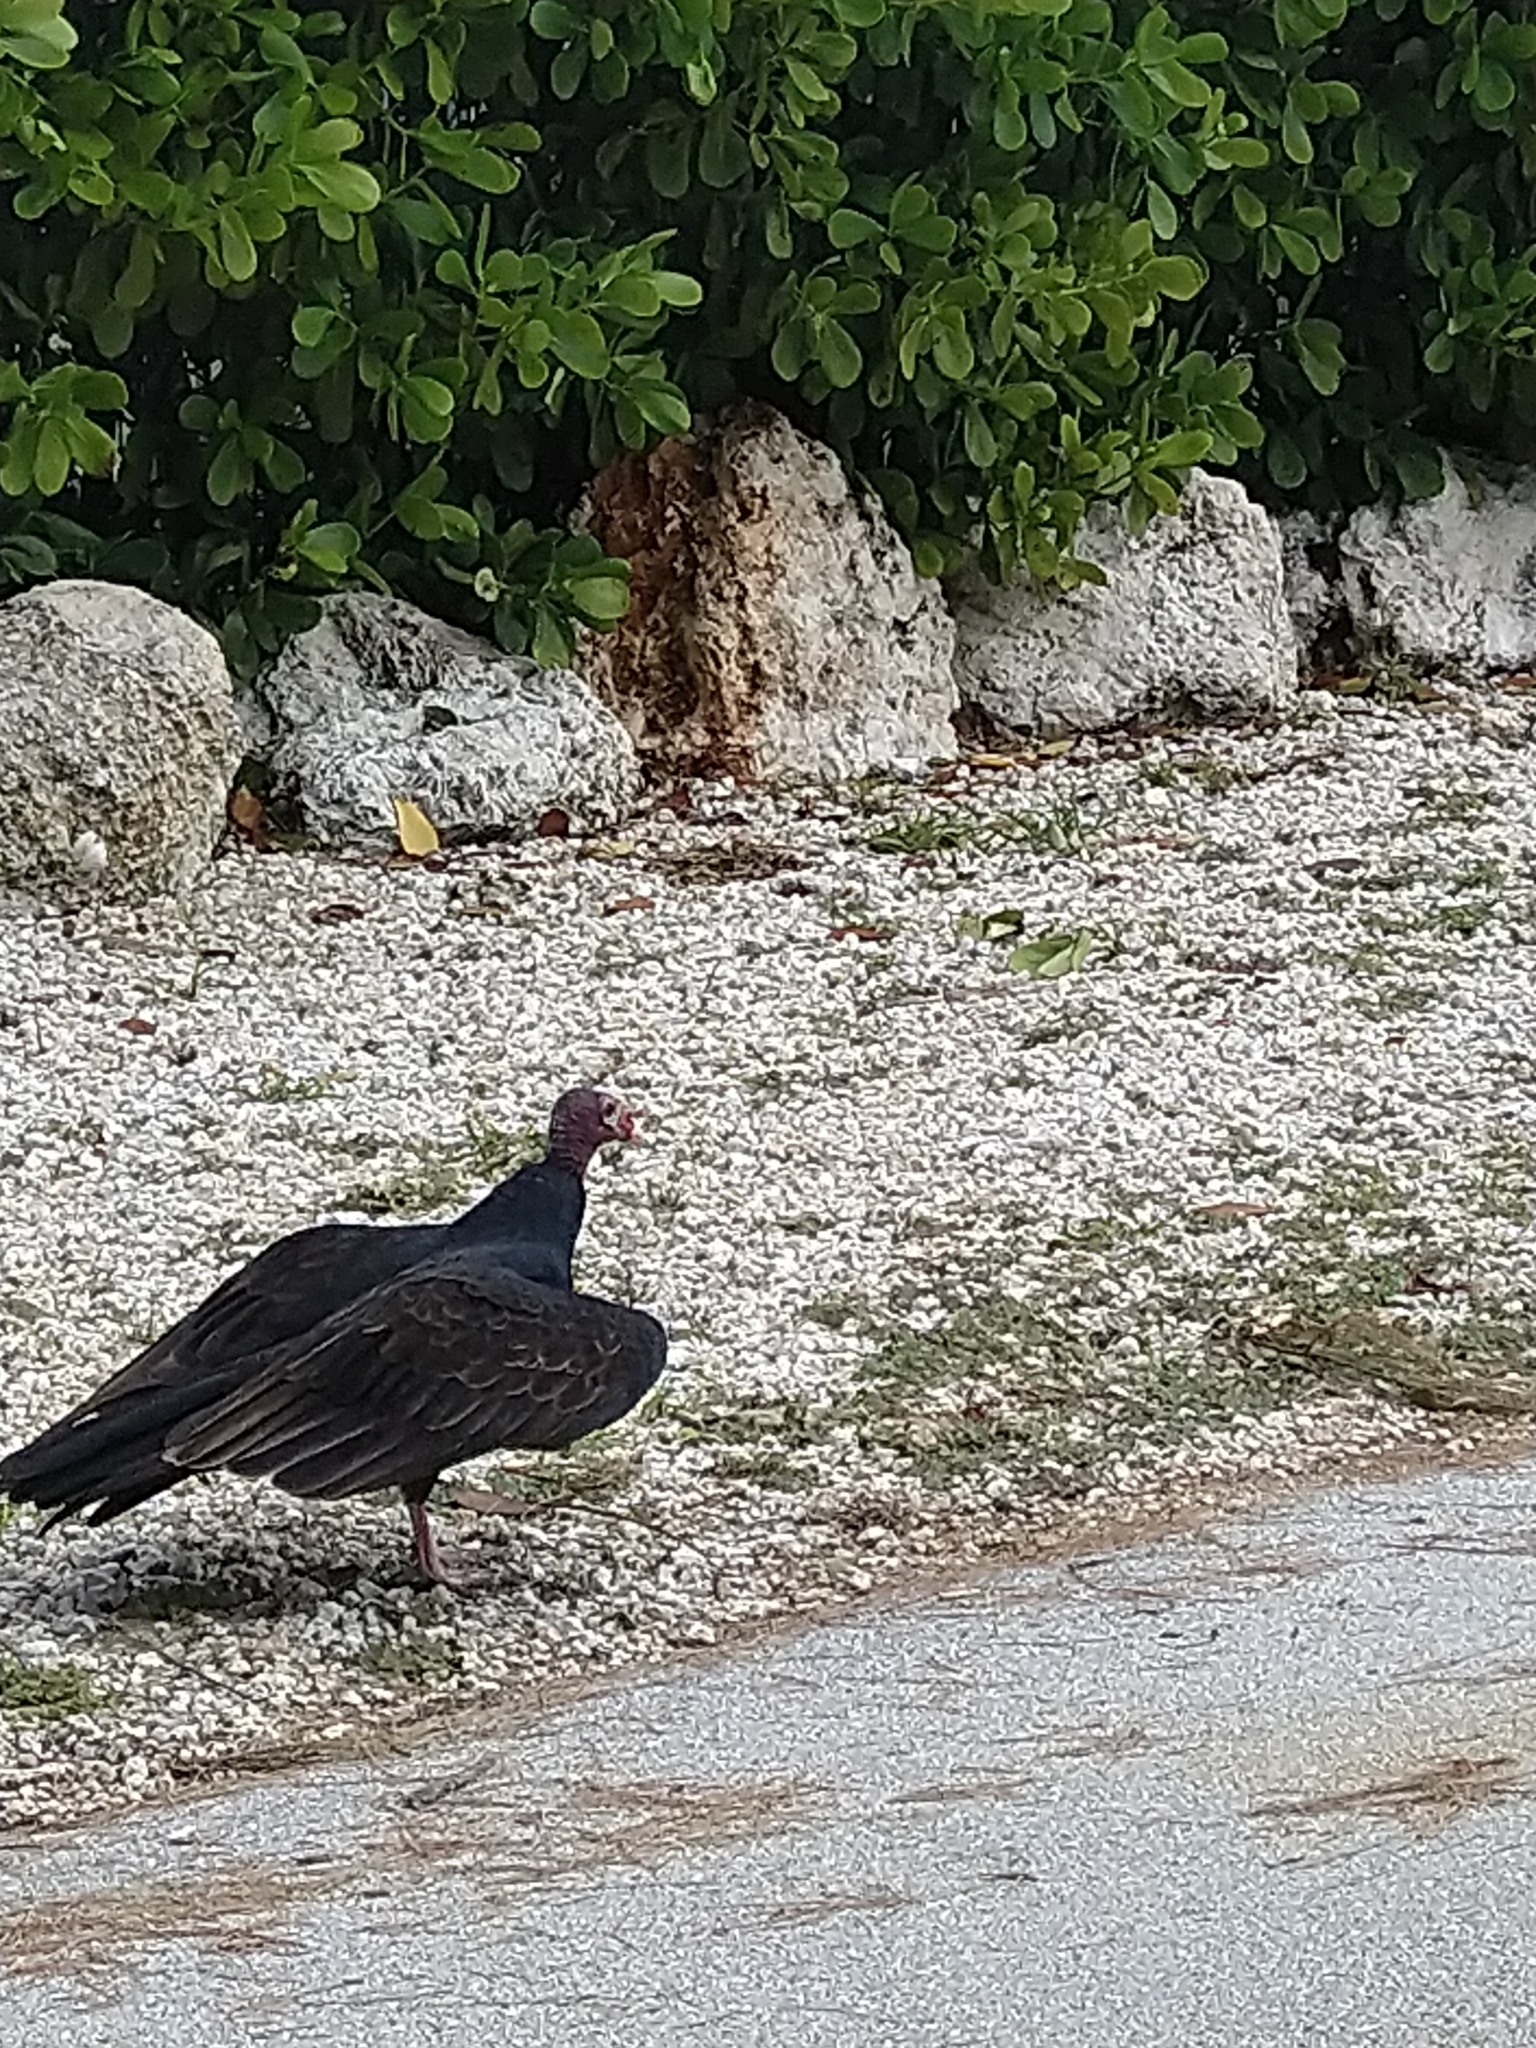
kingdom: Animalia
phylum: Chordata
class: Aves
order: Accipitriformes
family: Cathartidae
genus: Cathartes
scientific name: Cathartes aura
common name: Turkey vulture
